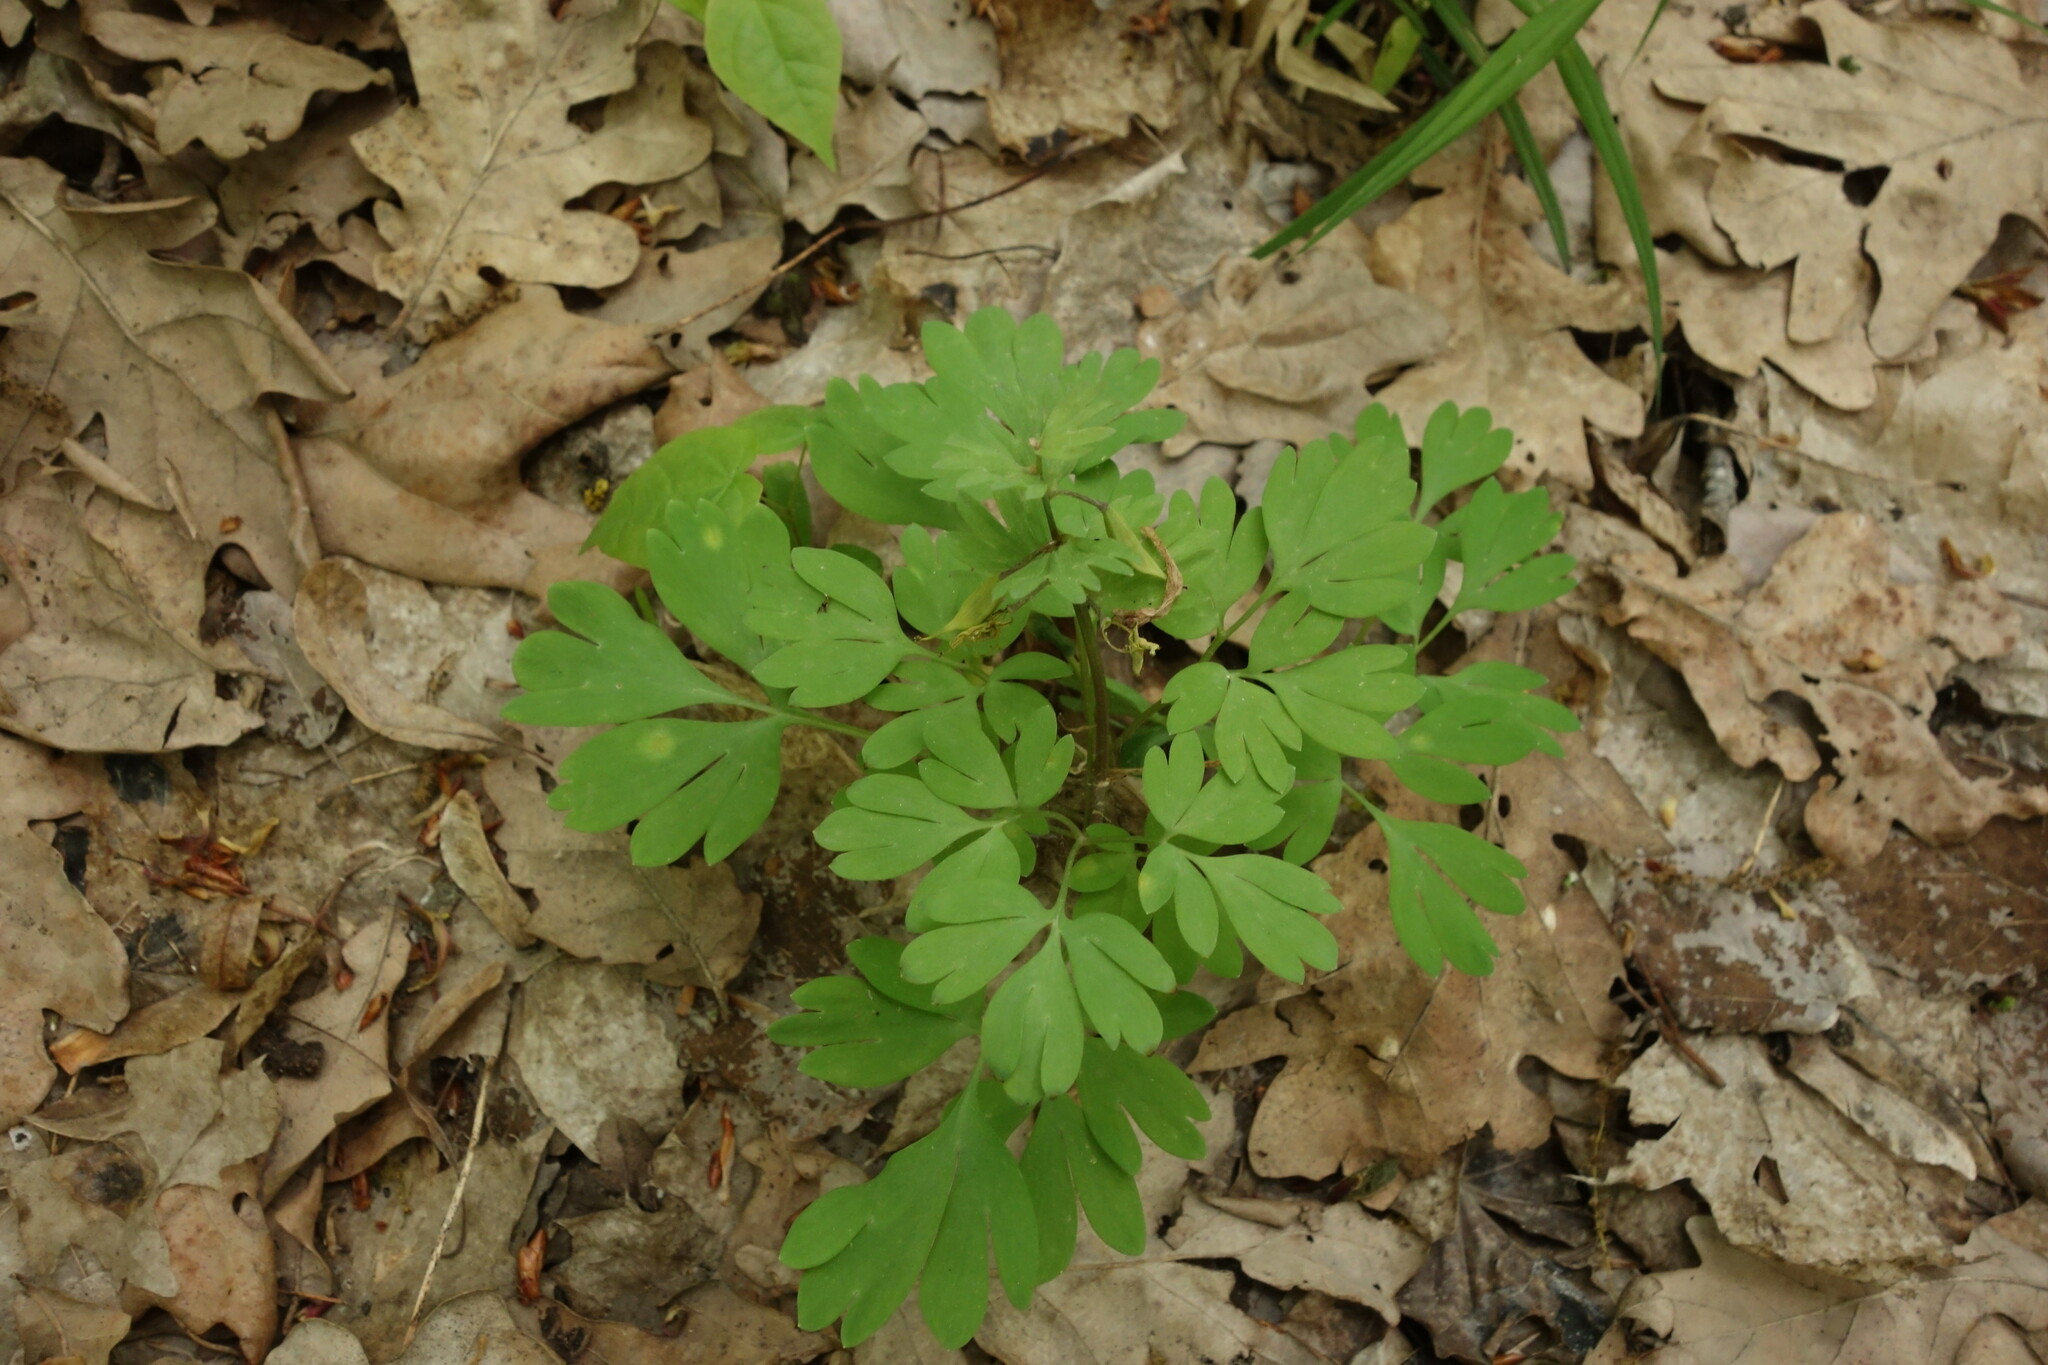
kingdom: Plantae
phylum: Tracheophyta
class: Magnoliopsida
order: Ranunculales
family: Papaveraceae
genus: Corydalis
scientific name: Corydalis solida
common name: Bird-in-a-bush
